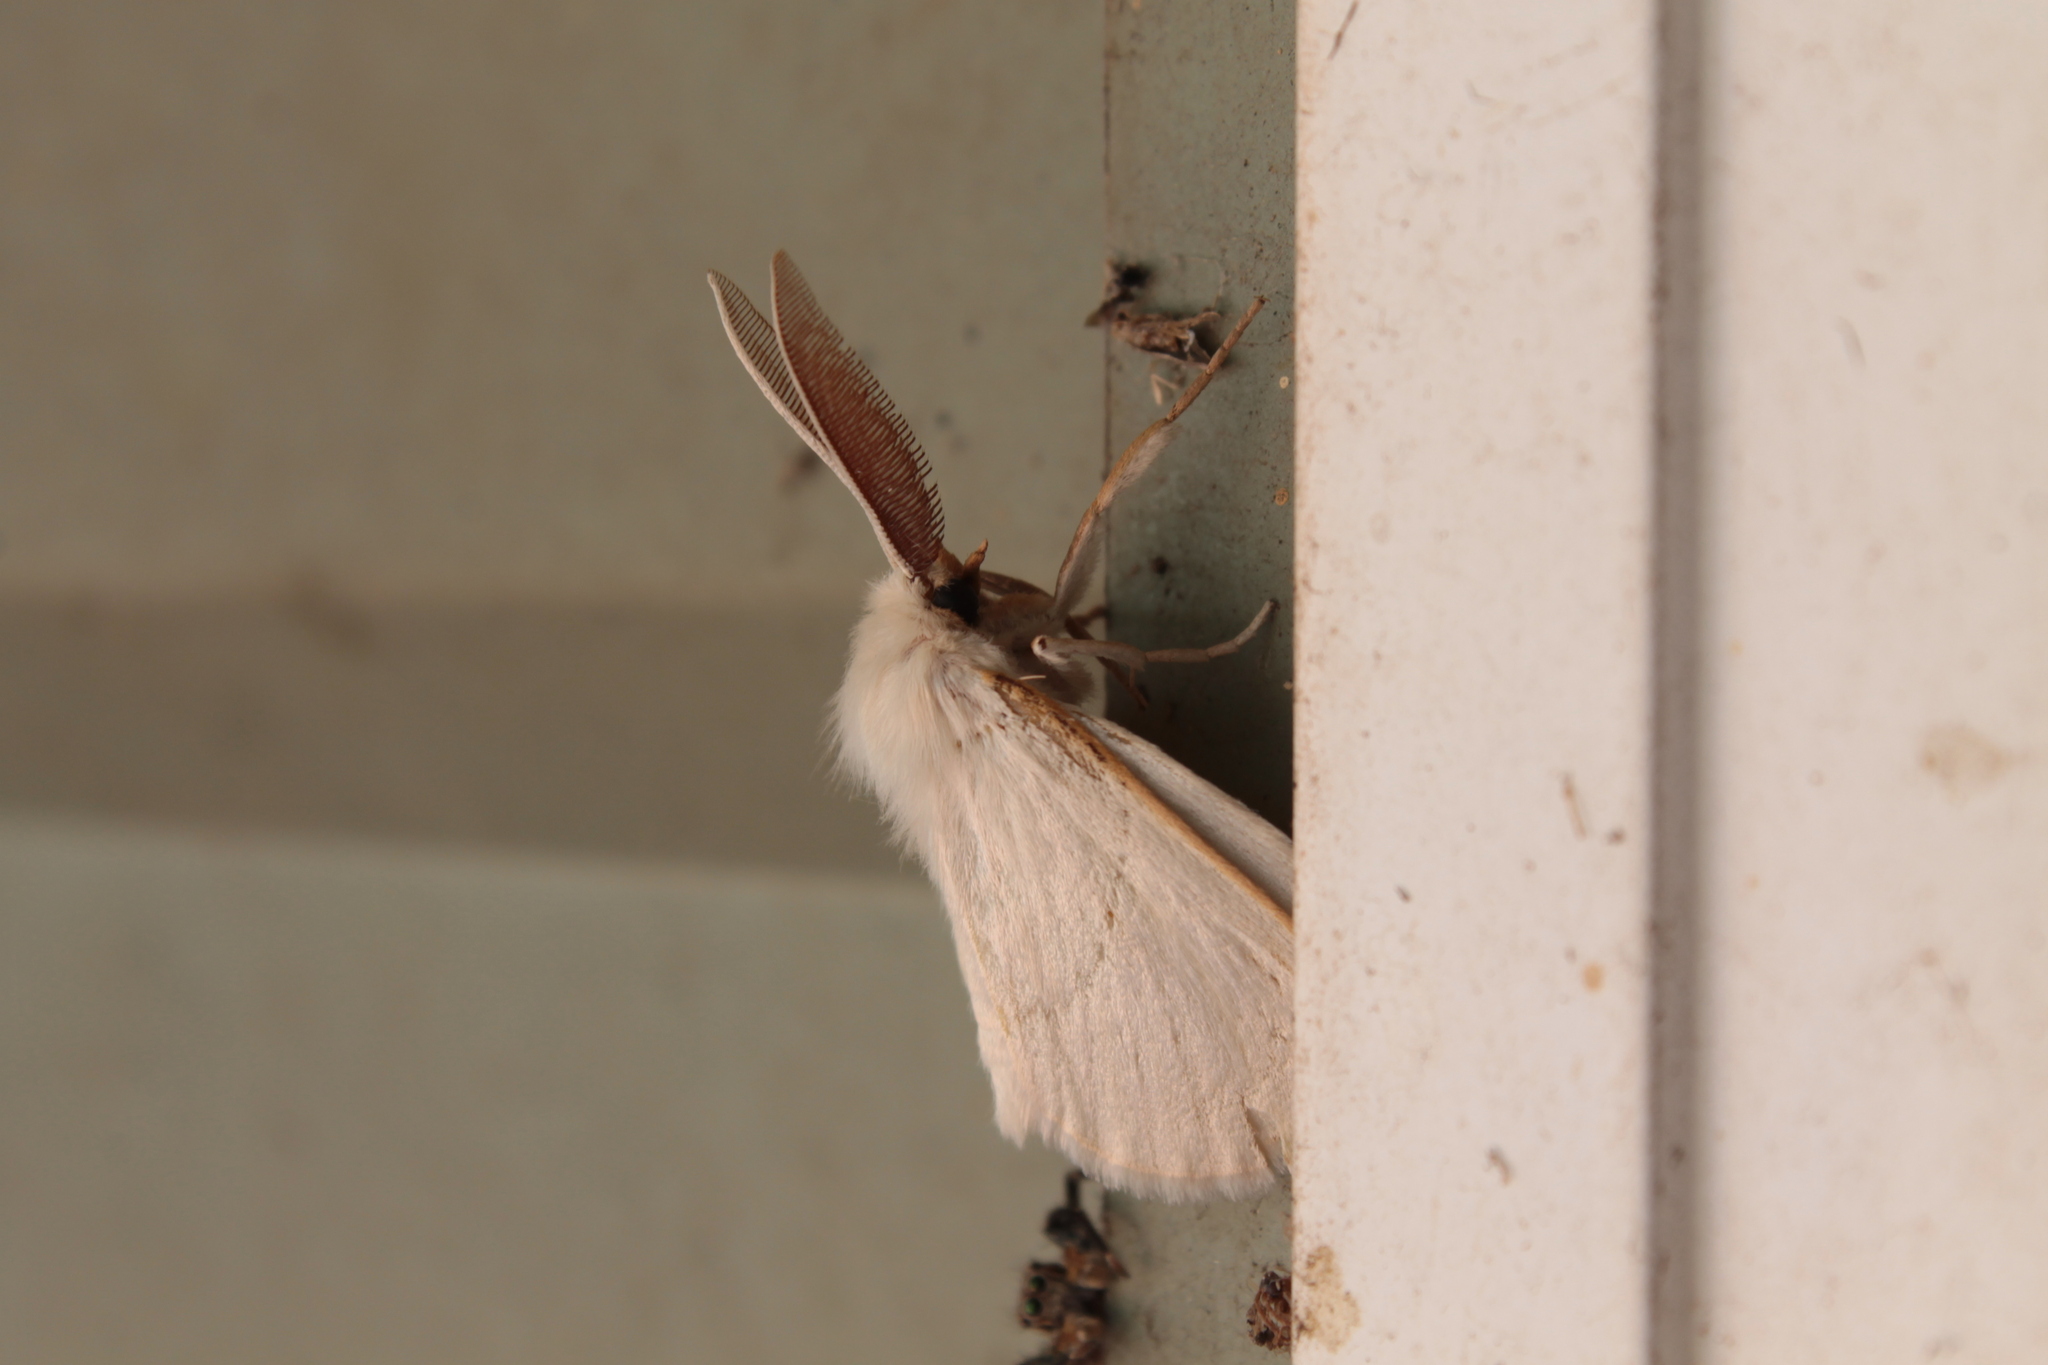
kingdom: Animalia
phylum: Arthropoda
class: Insecta
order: Lepidoptera
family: Anthelidae
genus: Anthela
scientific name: Anthela neurospasta
